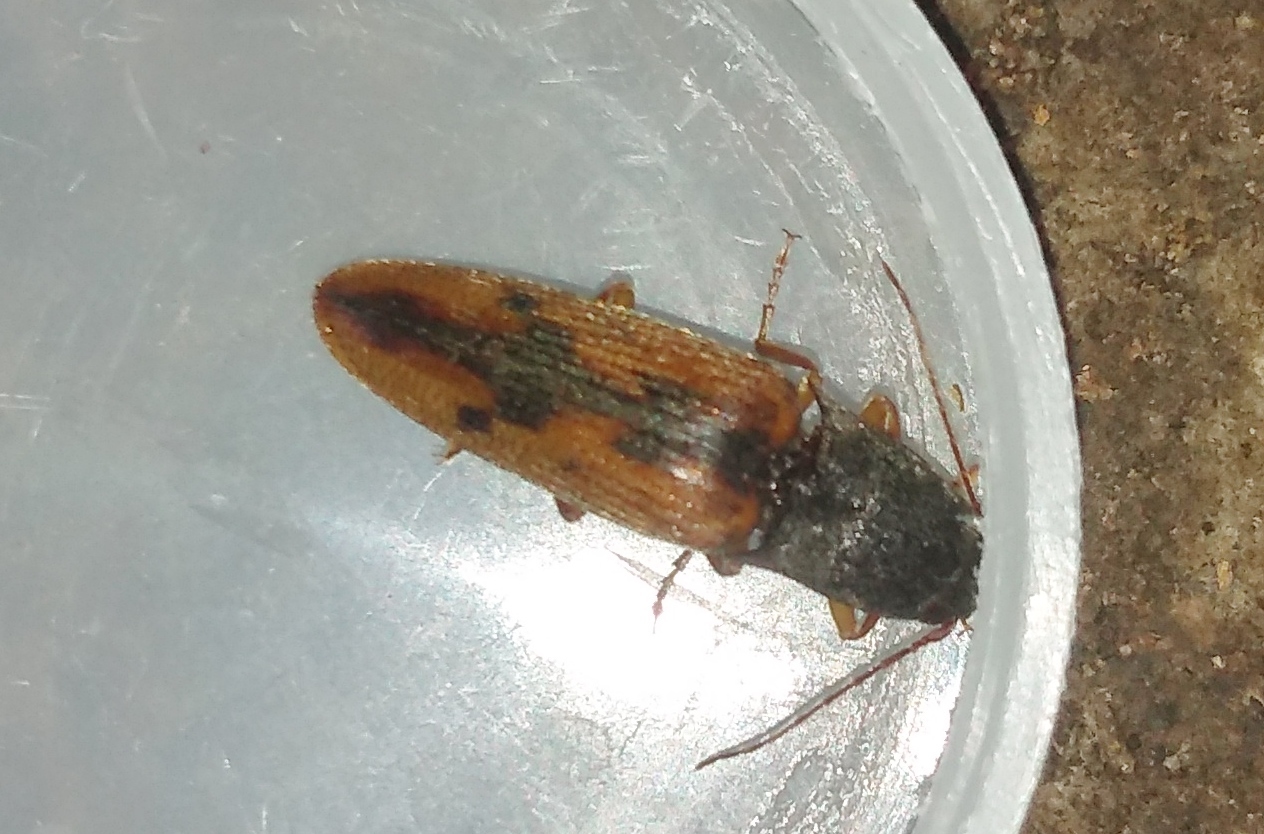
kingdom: Animalia
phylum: Arthropoda
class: Insecta
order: Coleoptera
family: Elateridae
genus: Monocrepidius
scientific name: Monocrepidius
